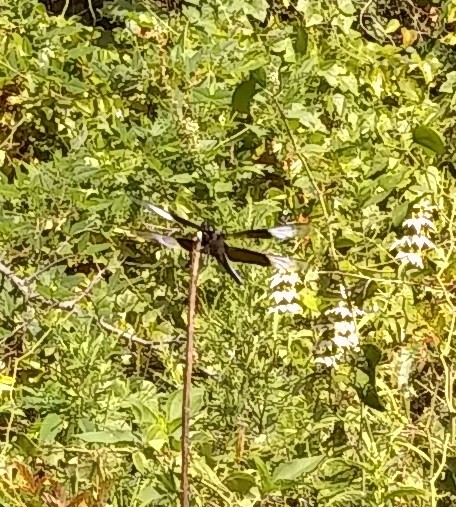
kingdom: Animalia
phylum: Arthropoda
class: Insecta
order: Odonata
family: Libellulidae
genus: Libellula
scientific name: Libellula luctuosa
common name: Widow skimmer
